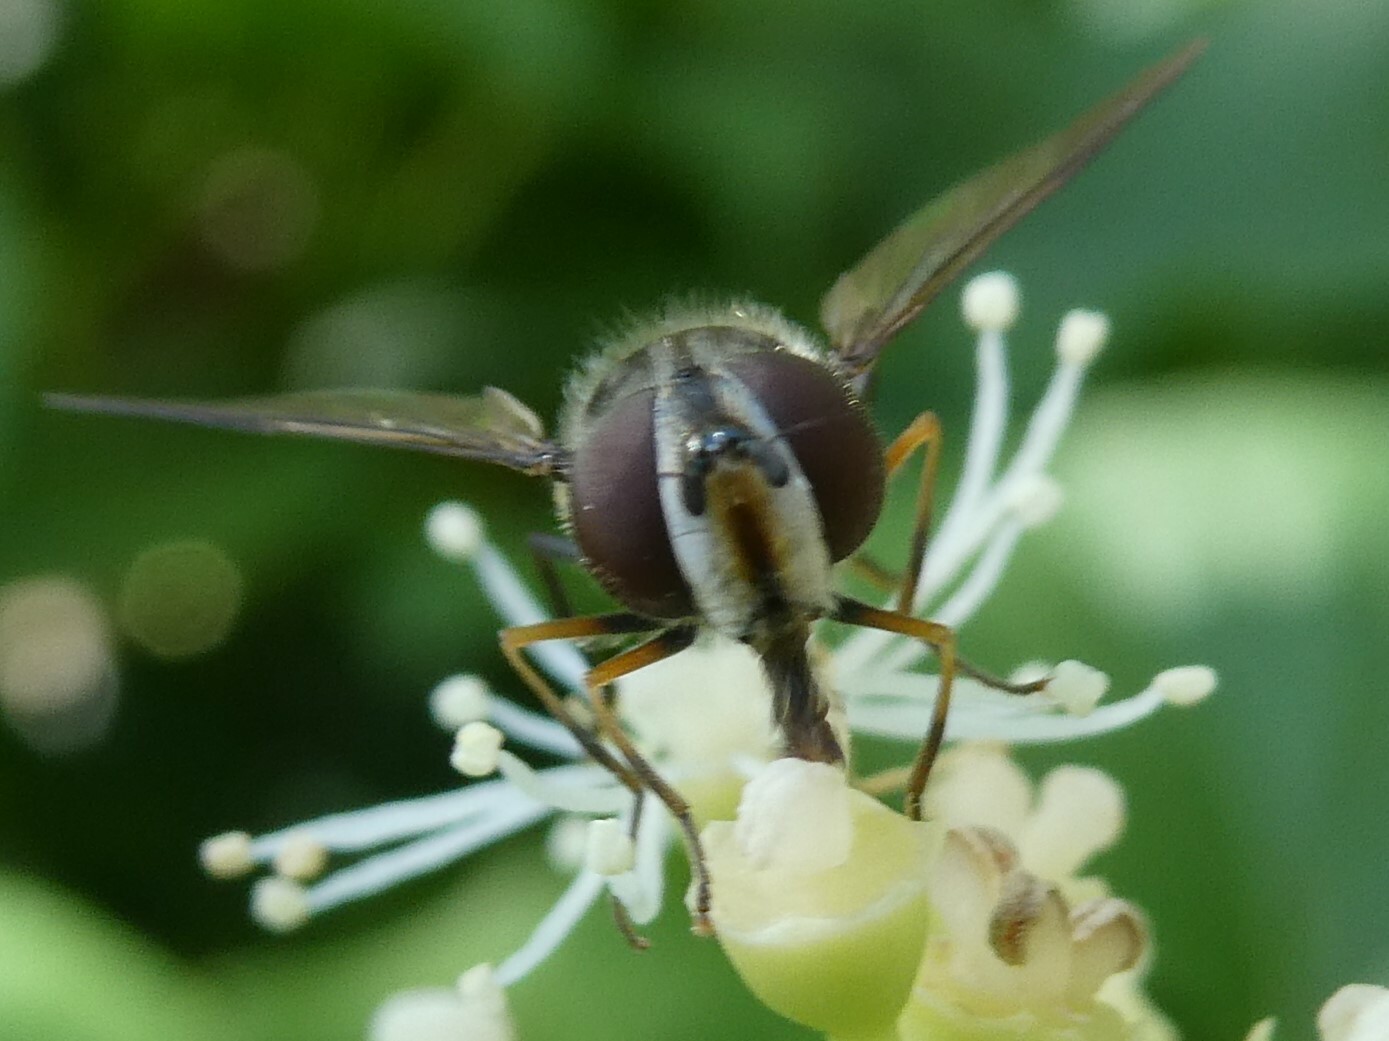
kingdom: Animalia
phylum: Arthropoda
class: Insecta
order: Diptera
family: Syrphidae
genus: Leucozona
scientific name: Leucozona xylotoides
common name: Eastern hoary
